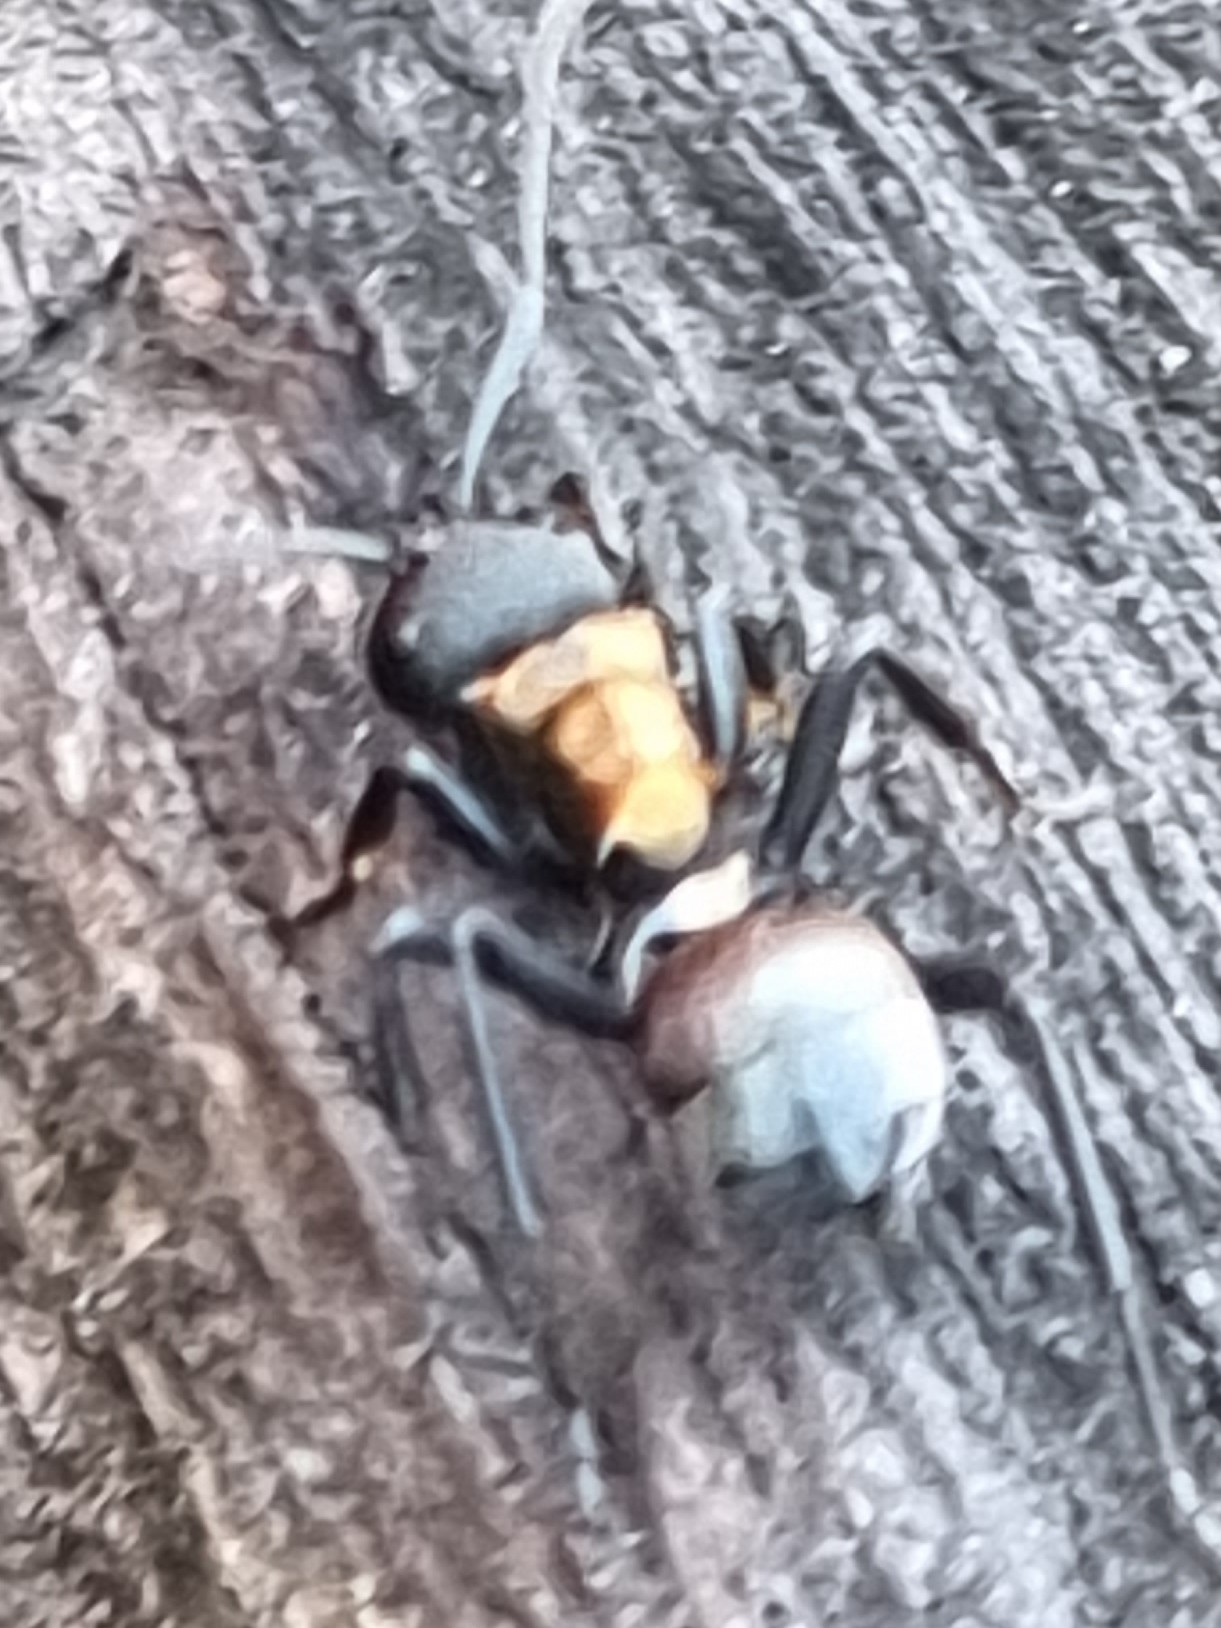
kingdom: Animalia
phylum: Arthropoda
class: Insecta
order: Hymenoptera
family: Formicidae
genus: Polyrhachis
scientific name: Polyrhachis ornata
